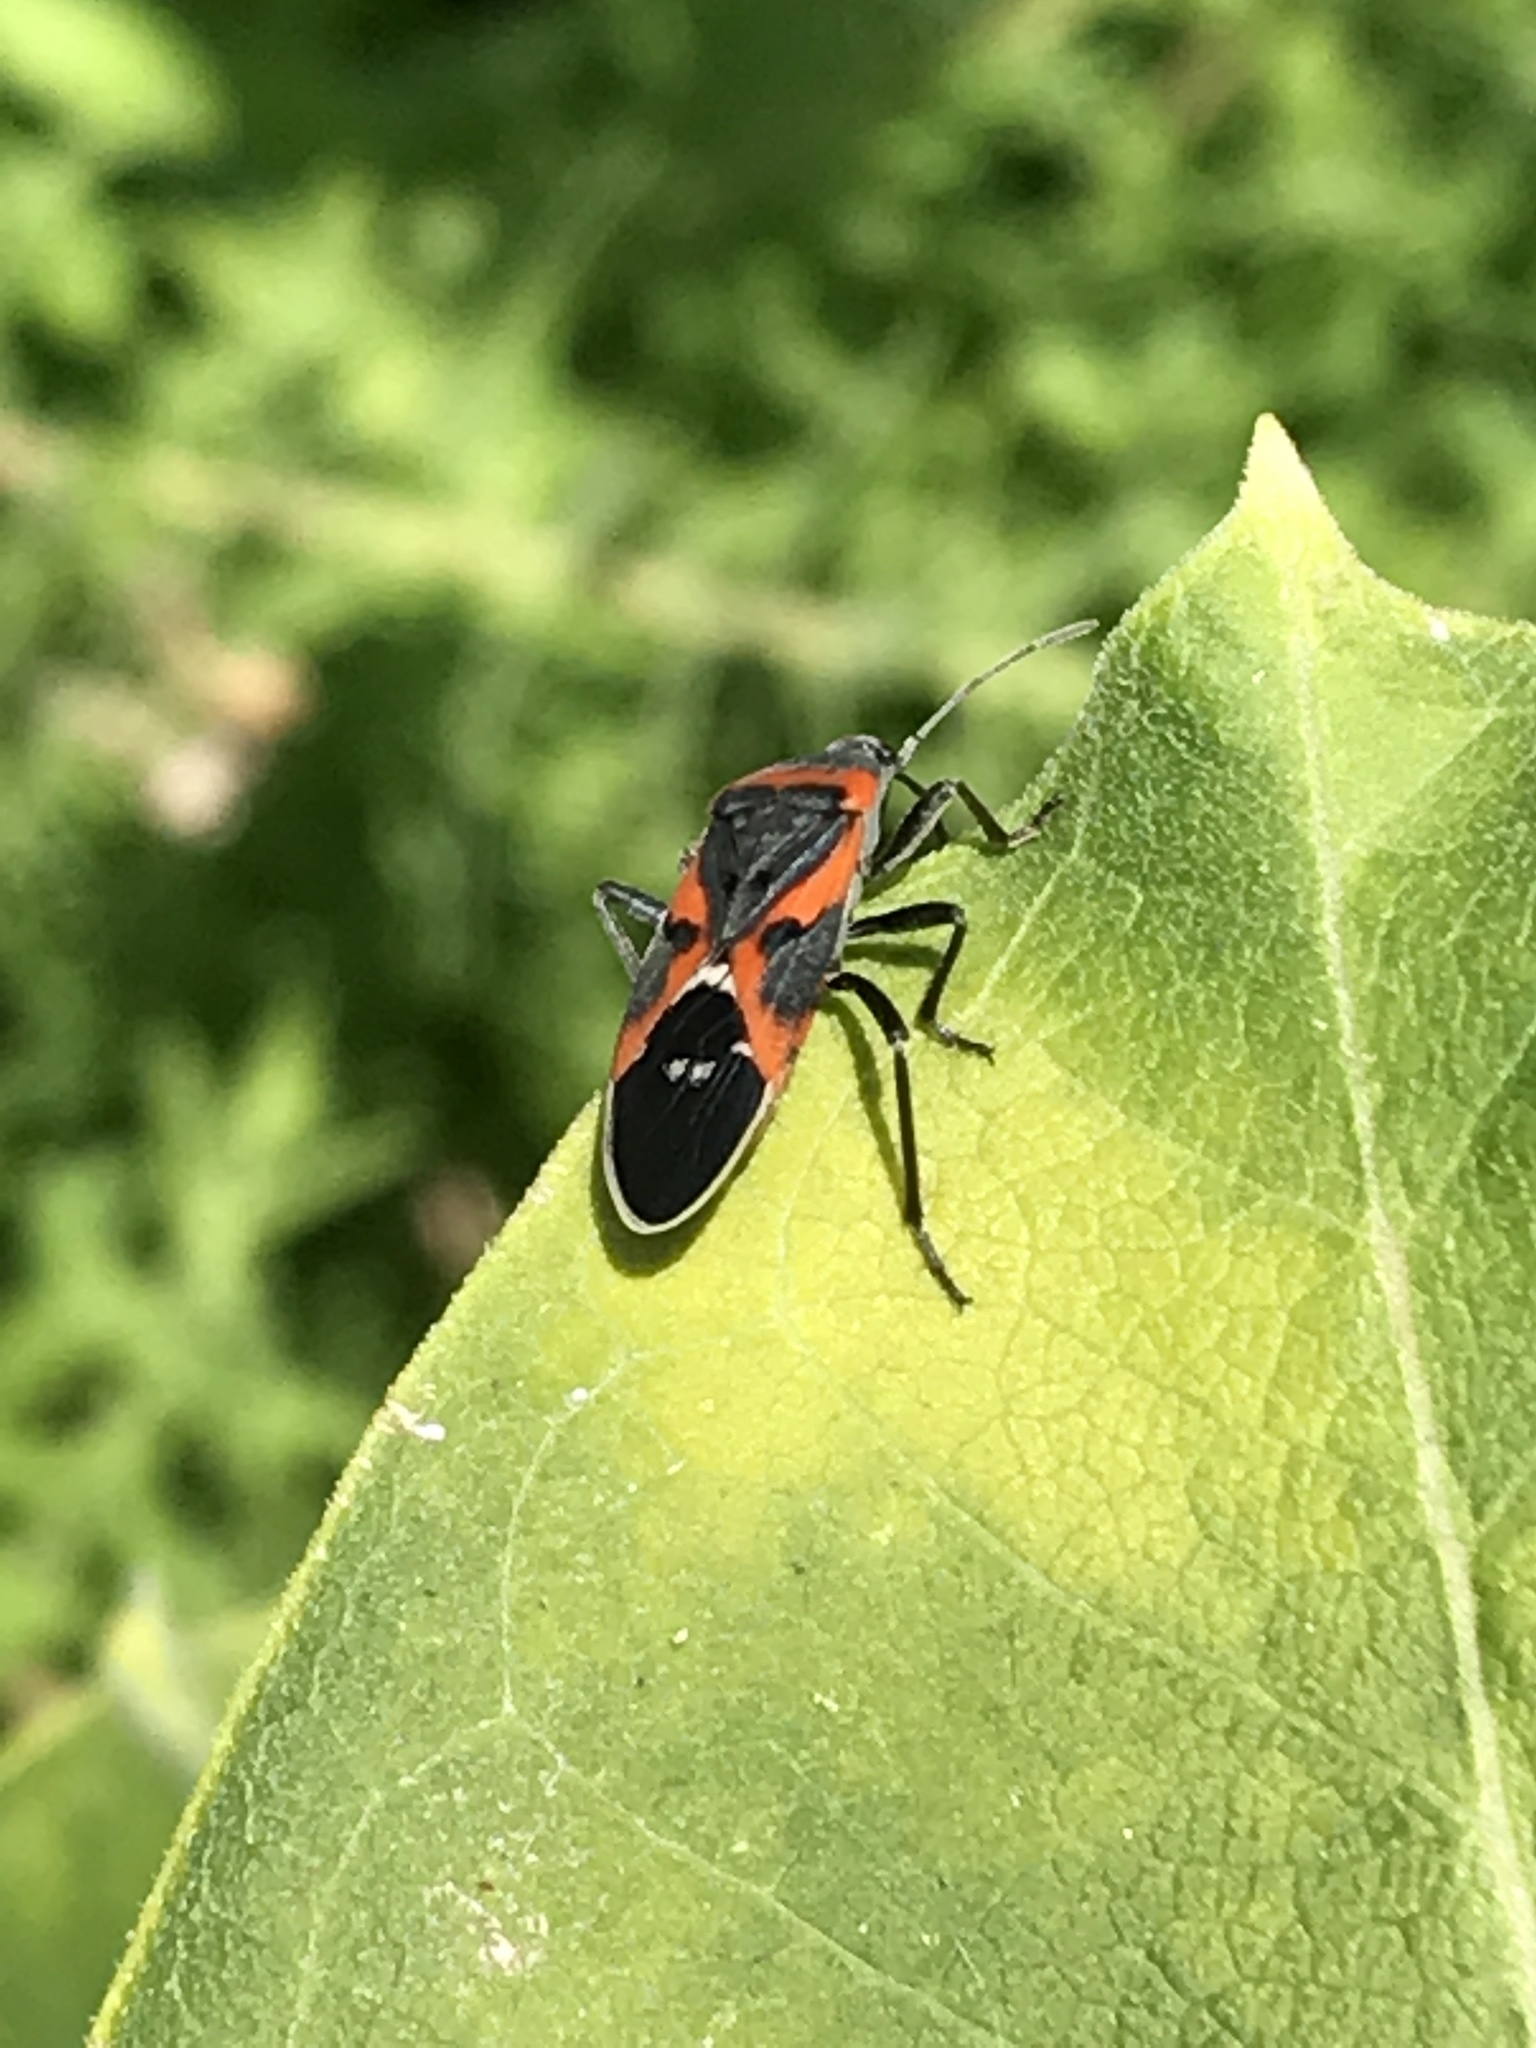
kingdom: Animalia
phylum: Arthropoda
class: Insecta
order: Hemiptera
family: Lygaeidae
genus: Lygaeus
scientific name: Lygaeus kalmii
